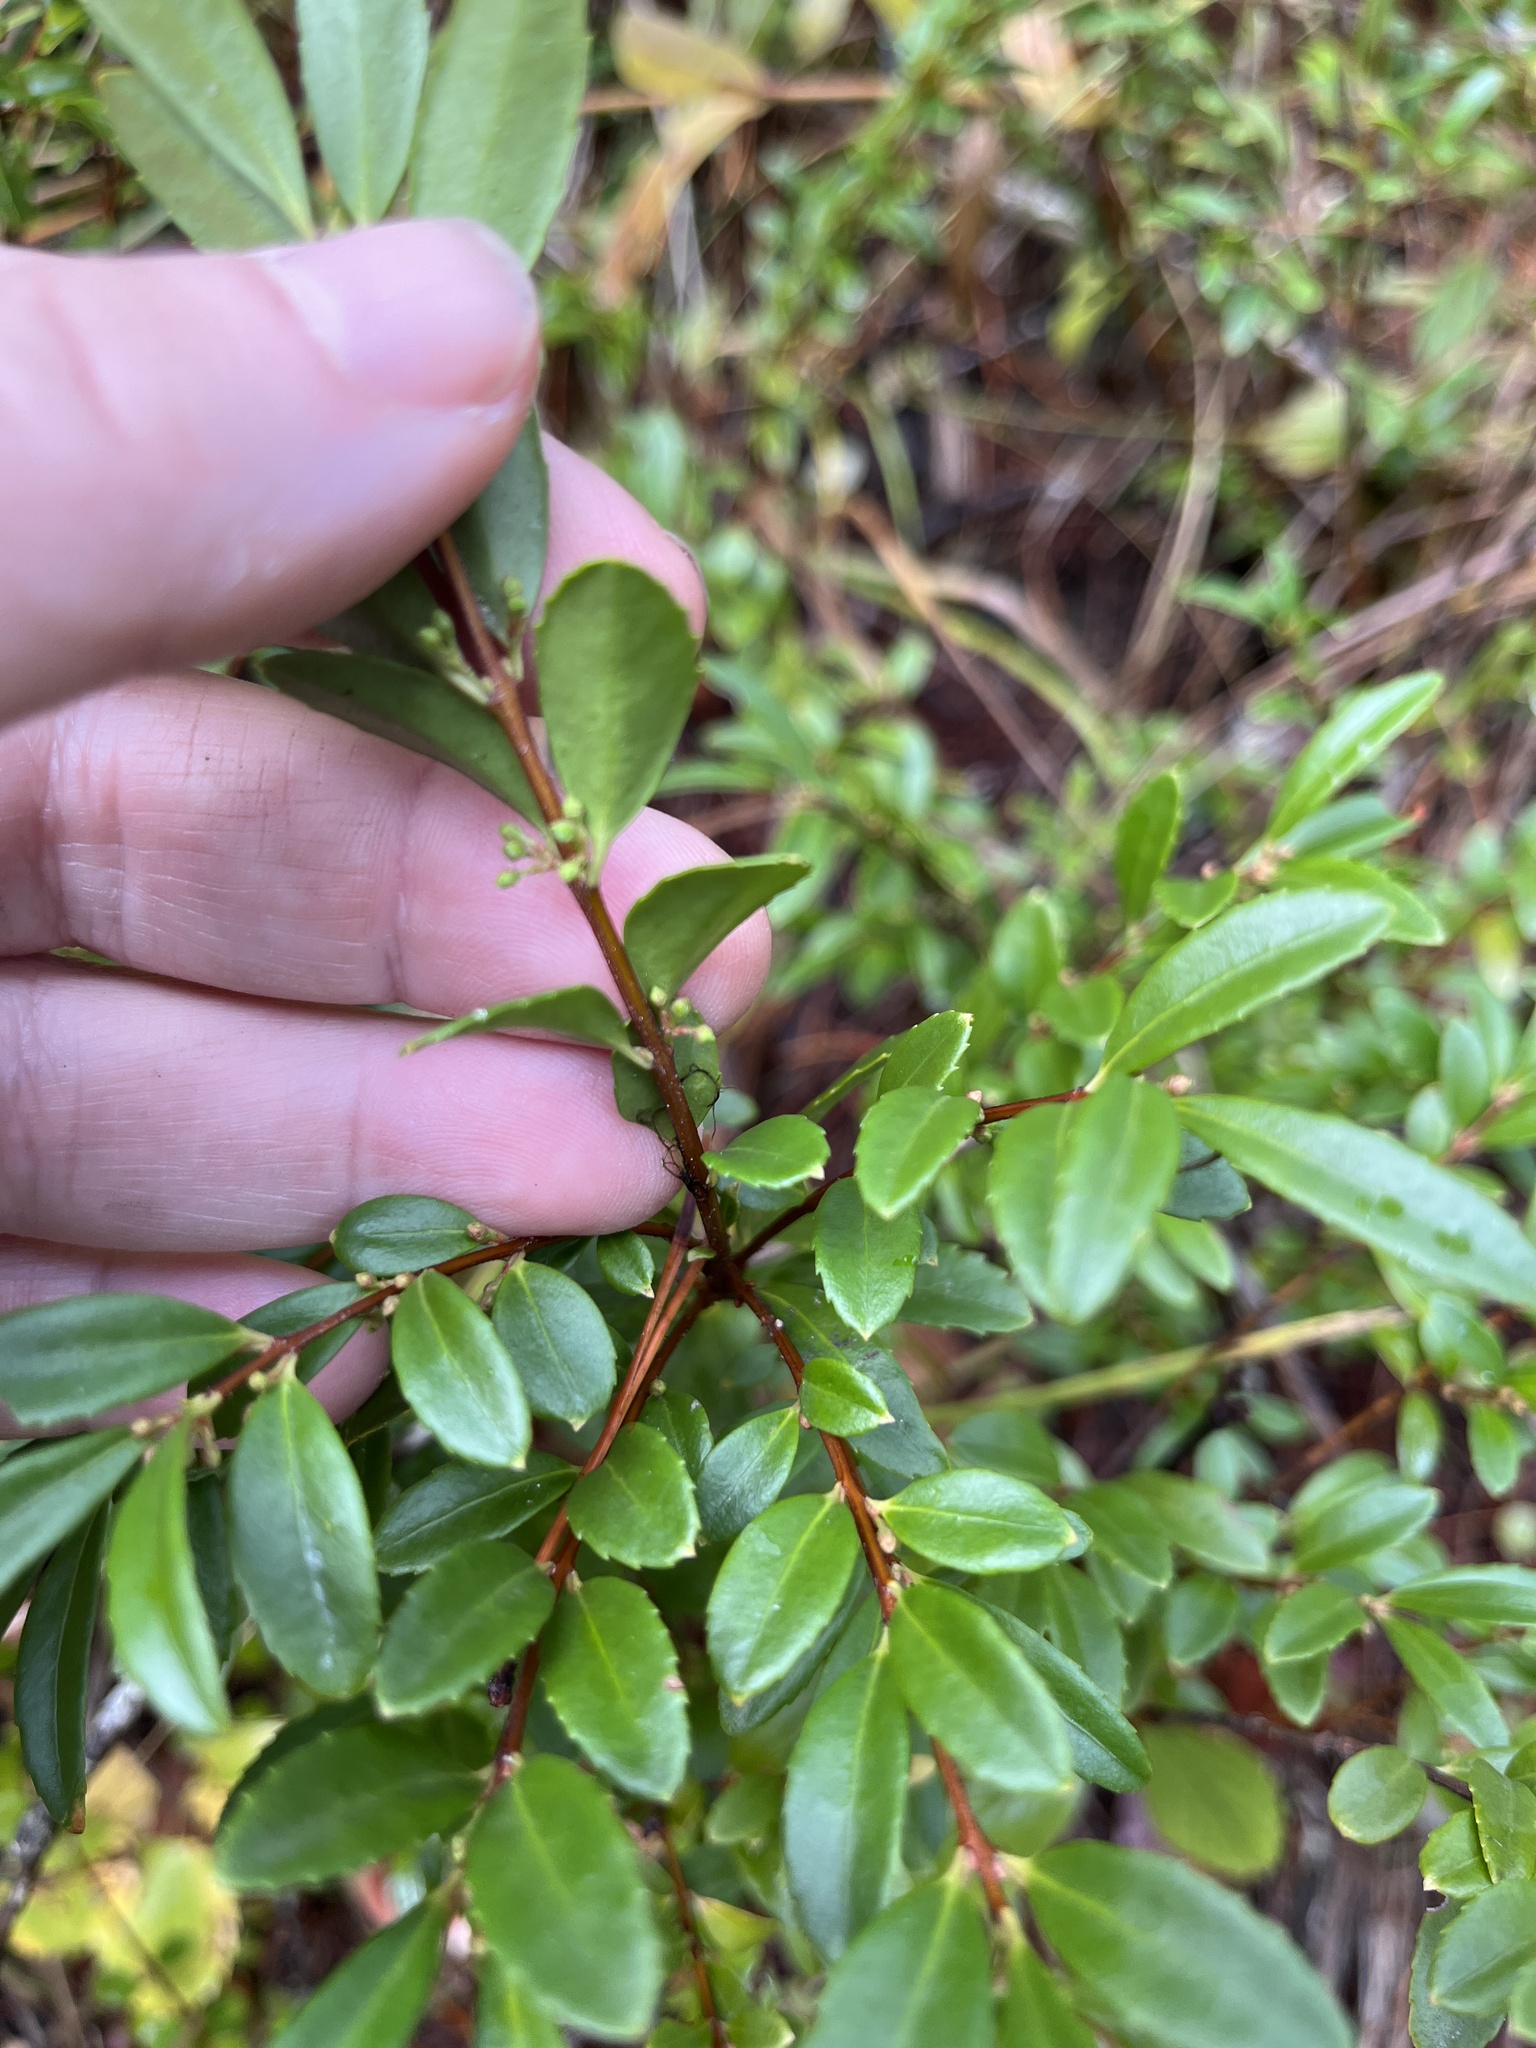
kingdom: Plantae
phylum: Tracheophyta
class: Magnoliopsida
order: Celastrales
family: Celastraceae
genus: Paxistima
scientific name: Paxistima myrsinites
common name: Mountain-lover
